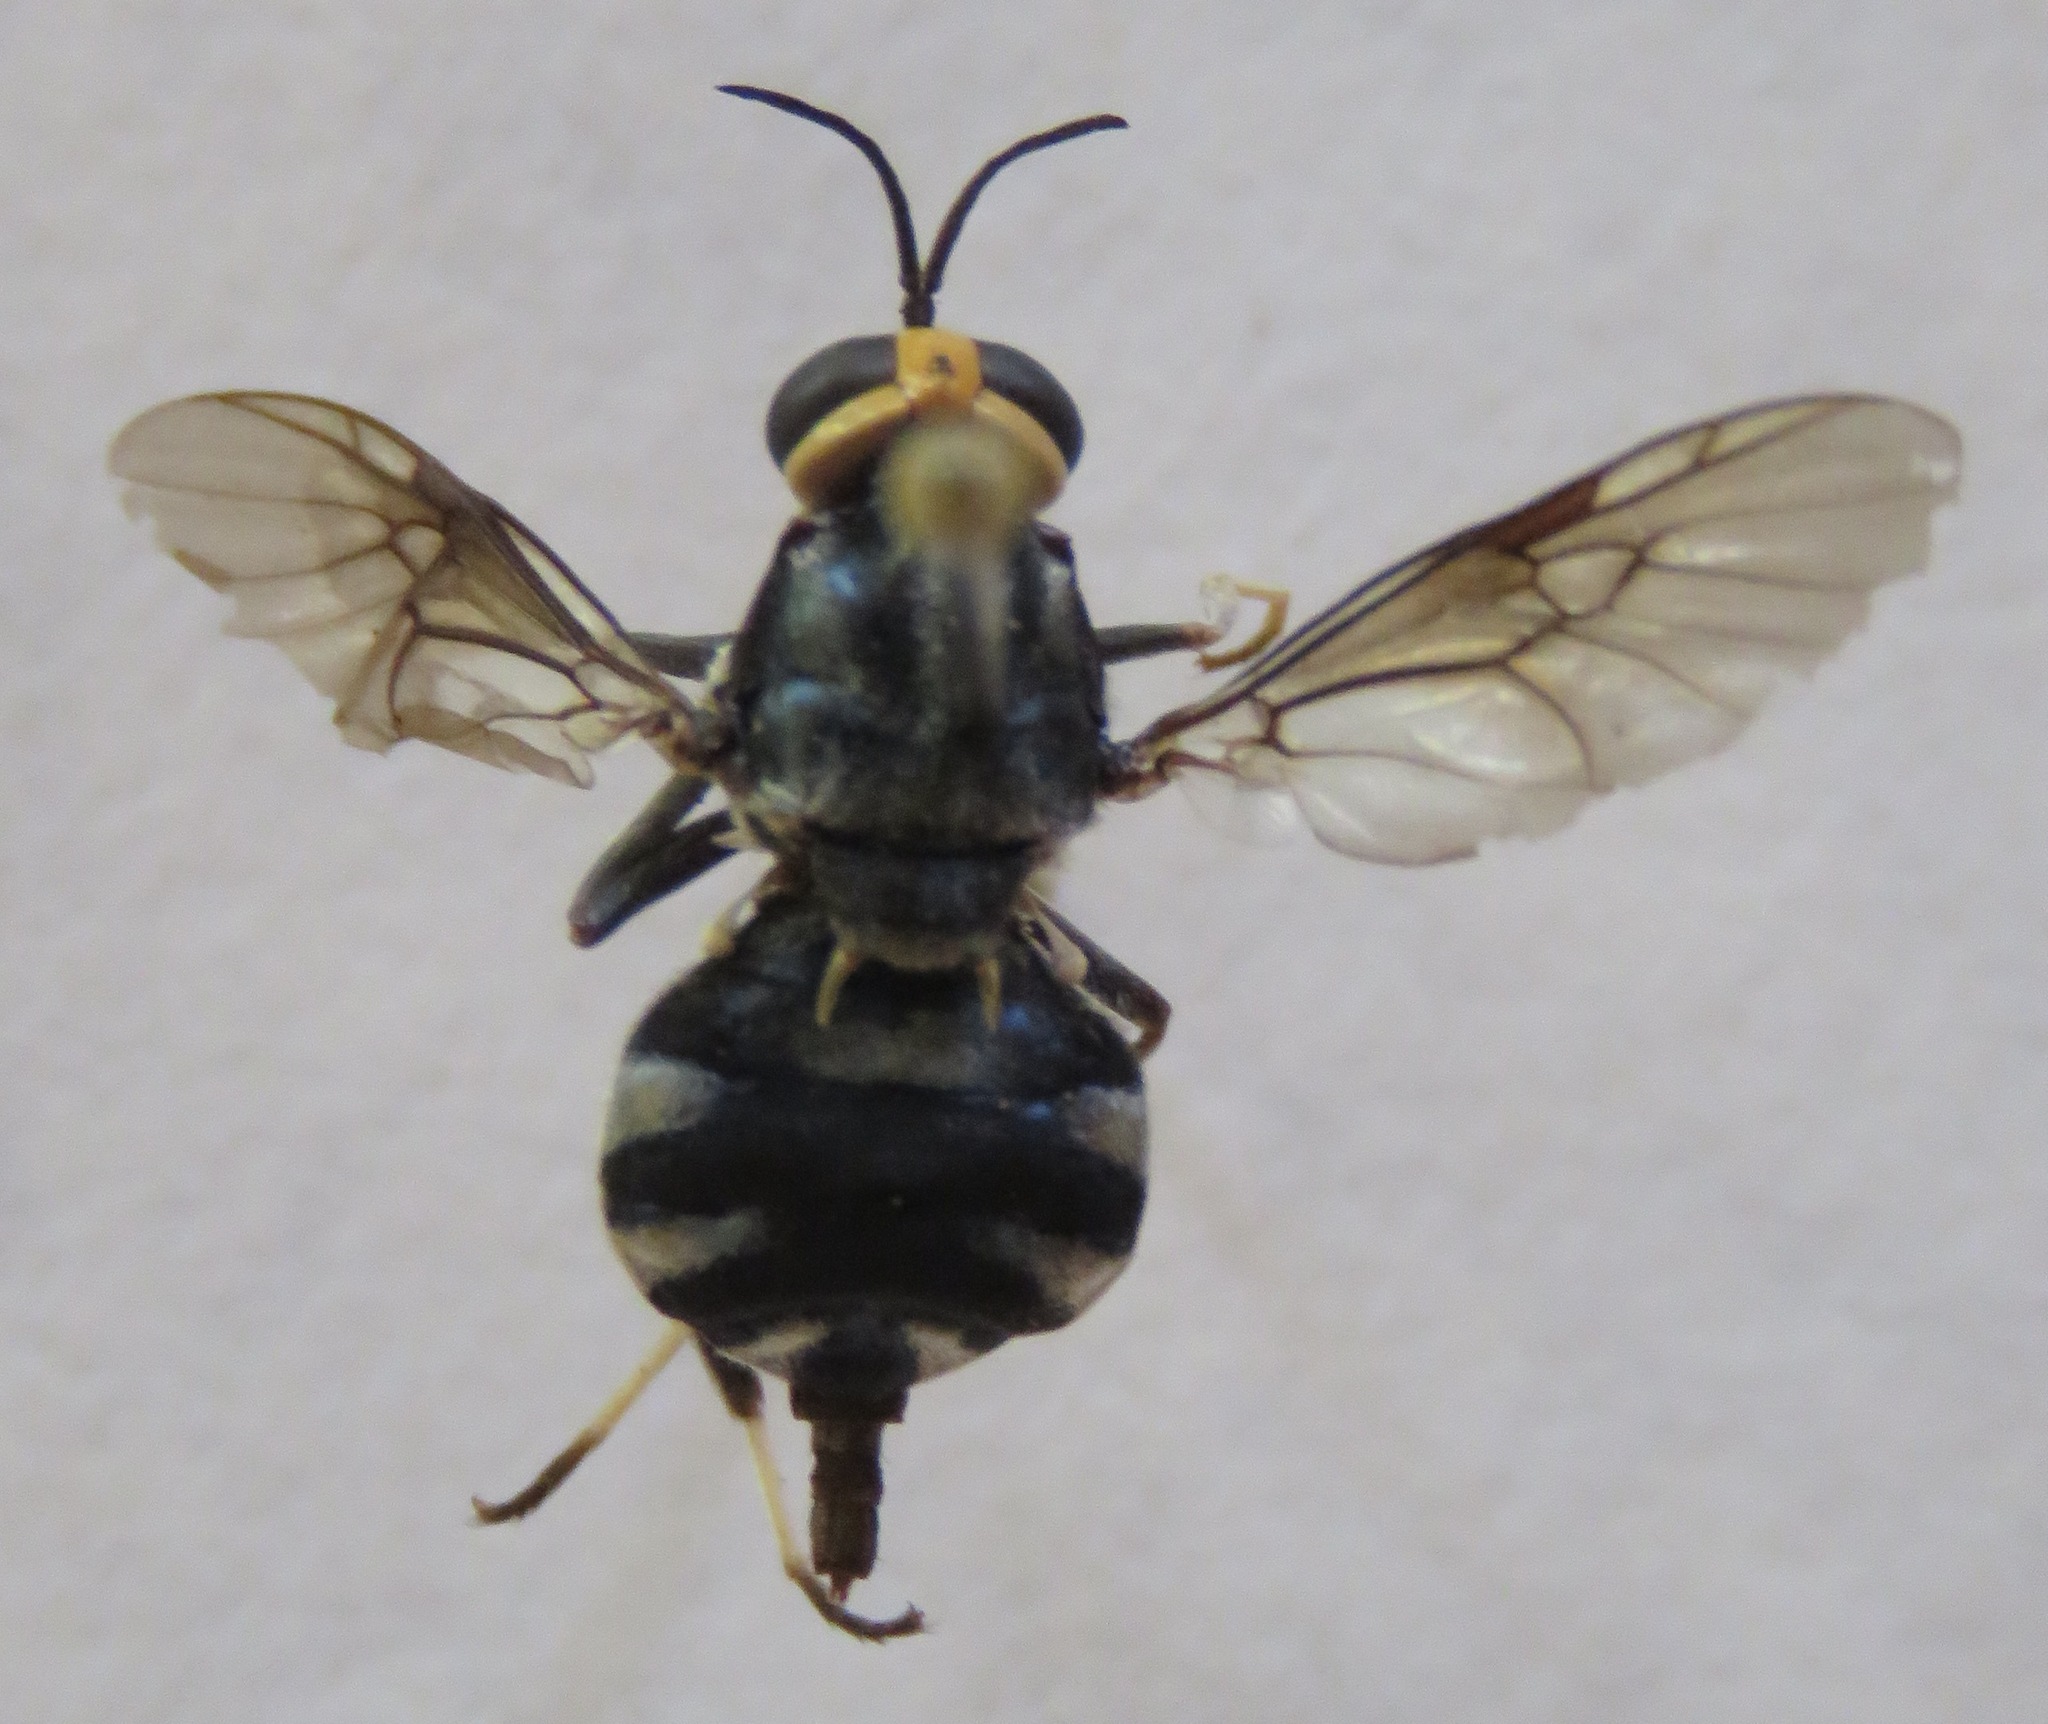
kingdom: Animalia
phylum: Arthropoda
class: Insecta
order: Diptera
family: Stratiomyidae
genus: Cyphomyia
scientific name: Cyphomyia wiedemanni
